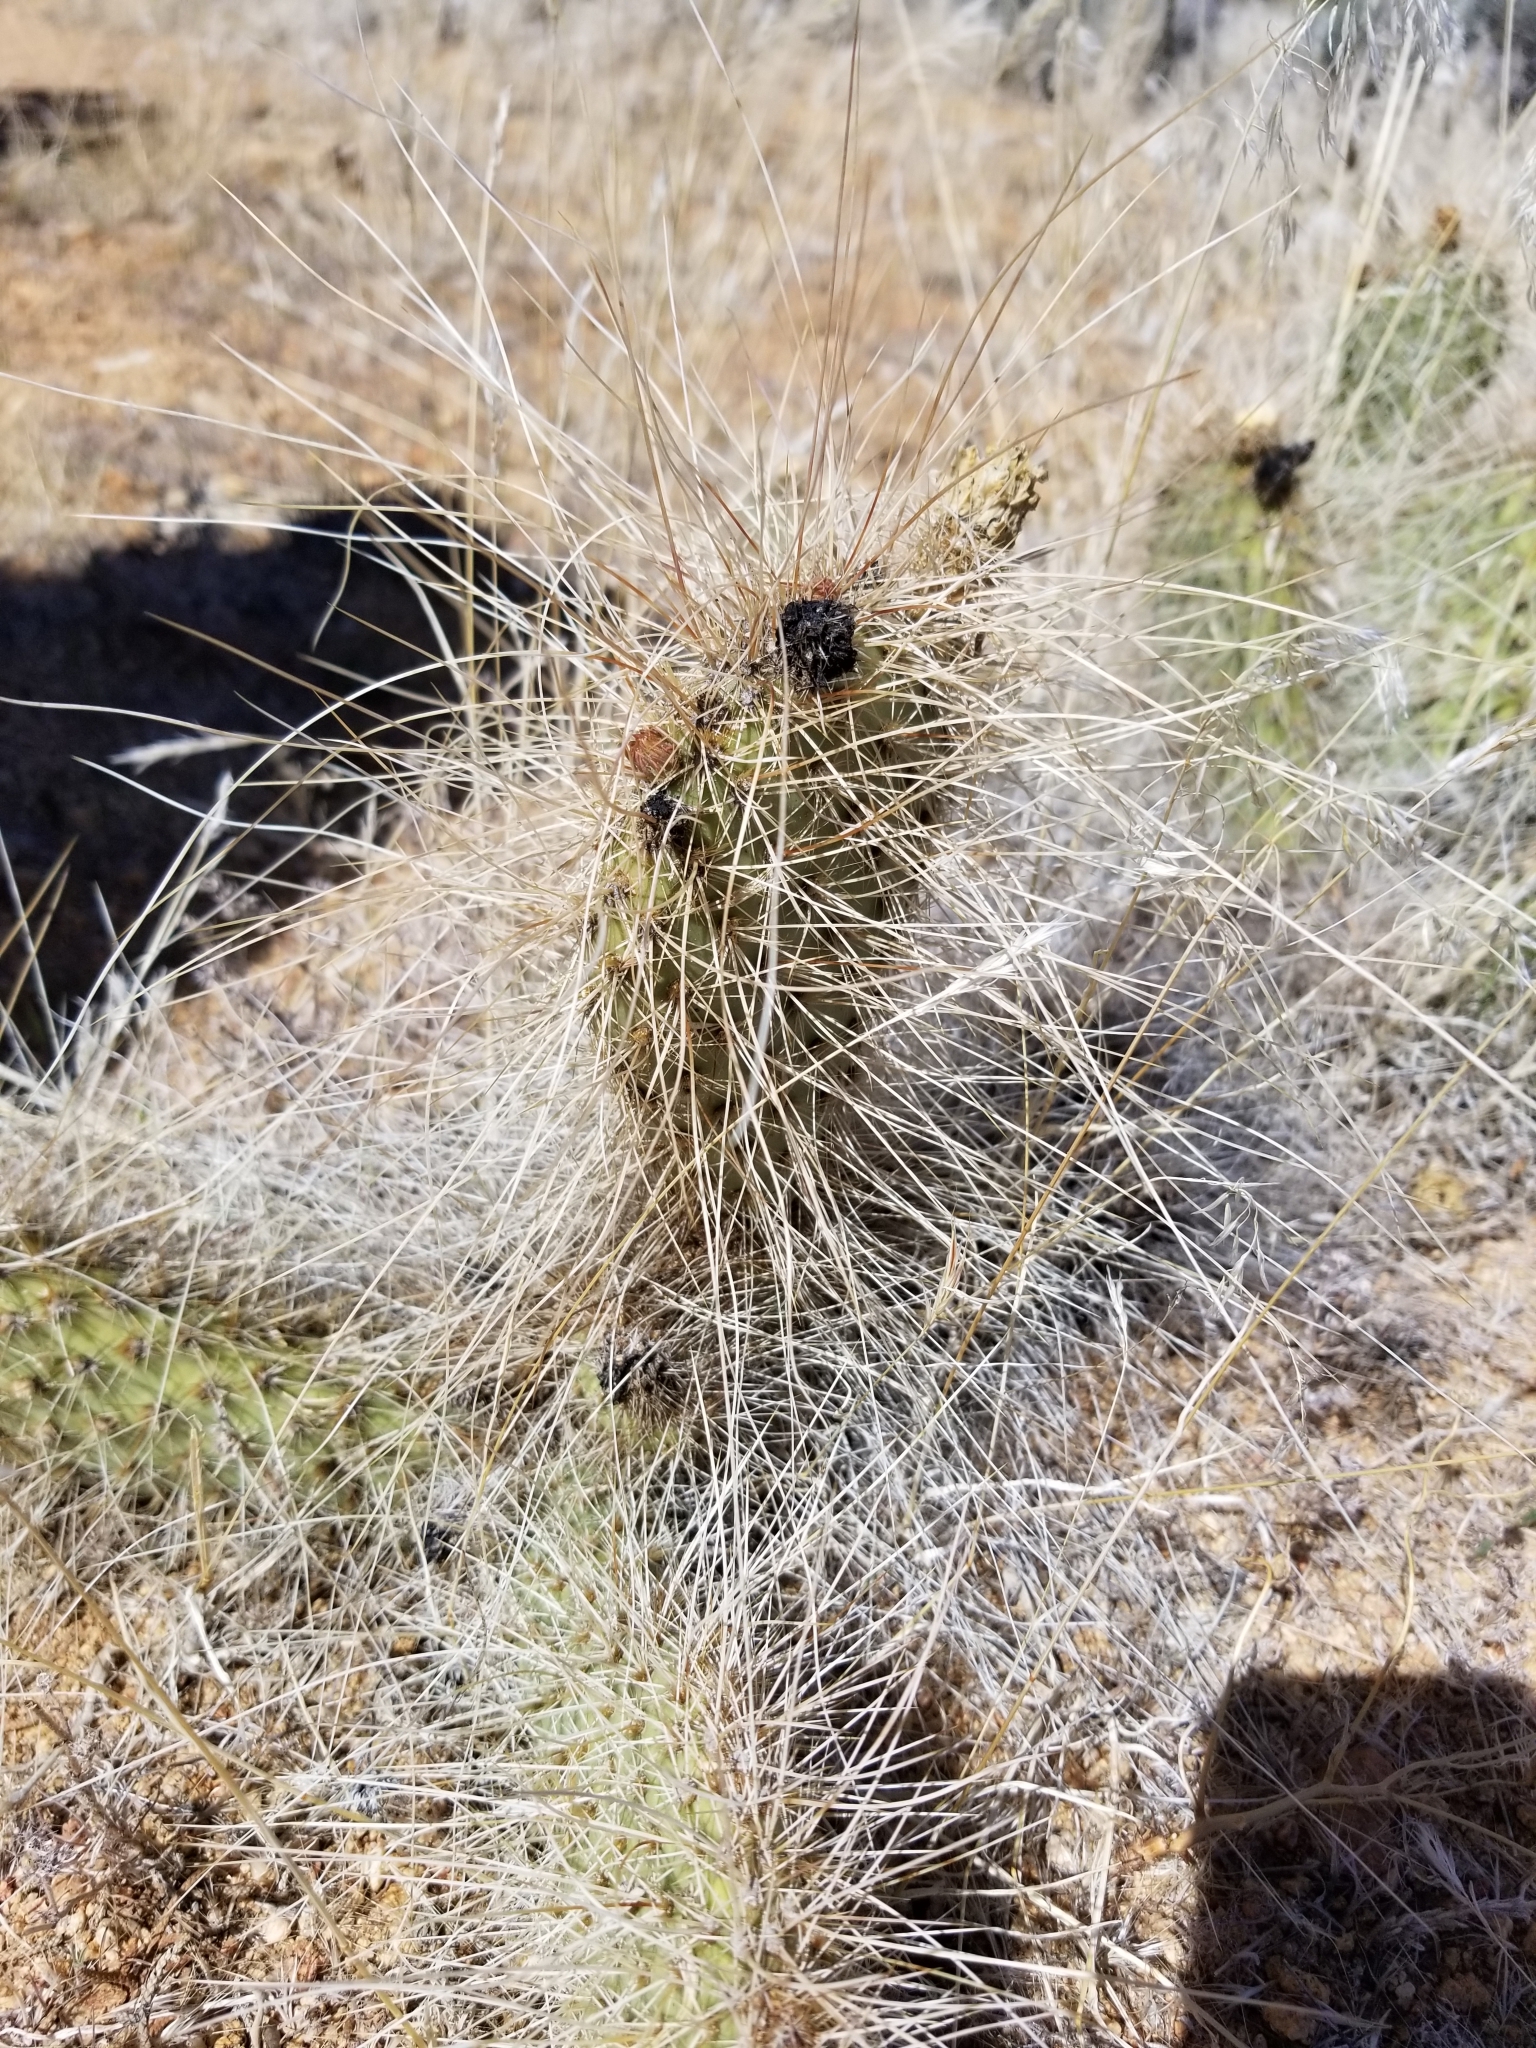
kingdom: Plantae
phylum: Tracheophyta
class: Magnoliopsida
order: Caryophyllales
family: Cactaceae
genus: Opuntia
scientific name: Opuntia polyacantha
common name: Plains prickly-pear
